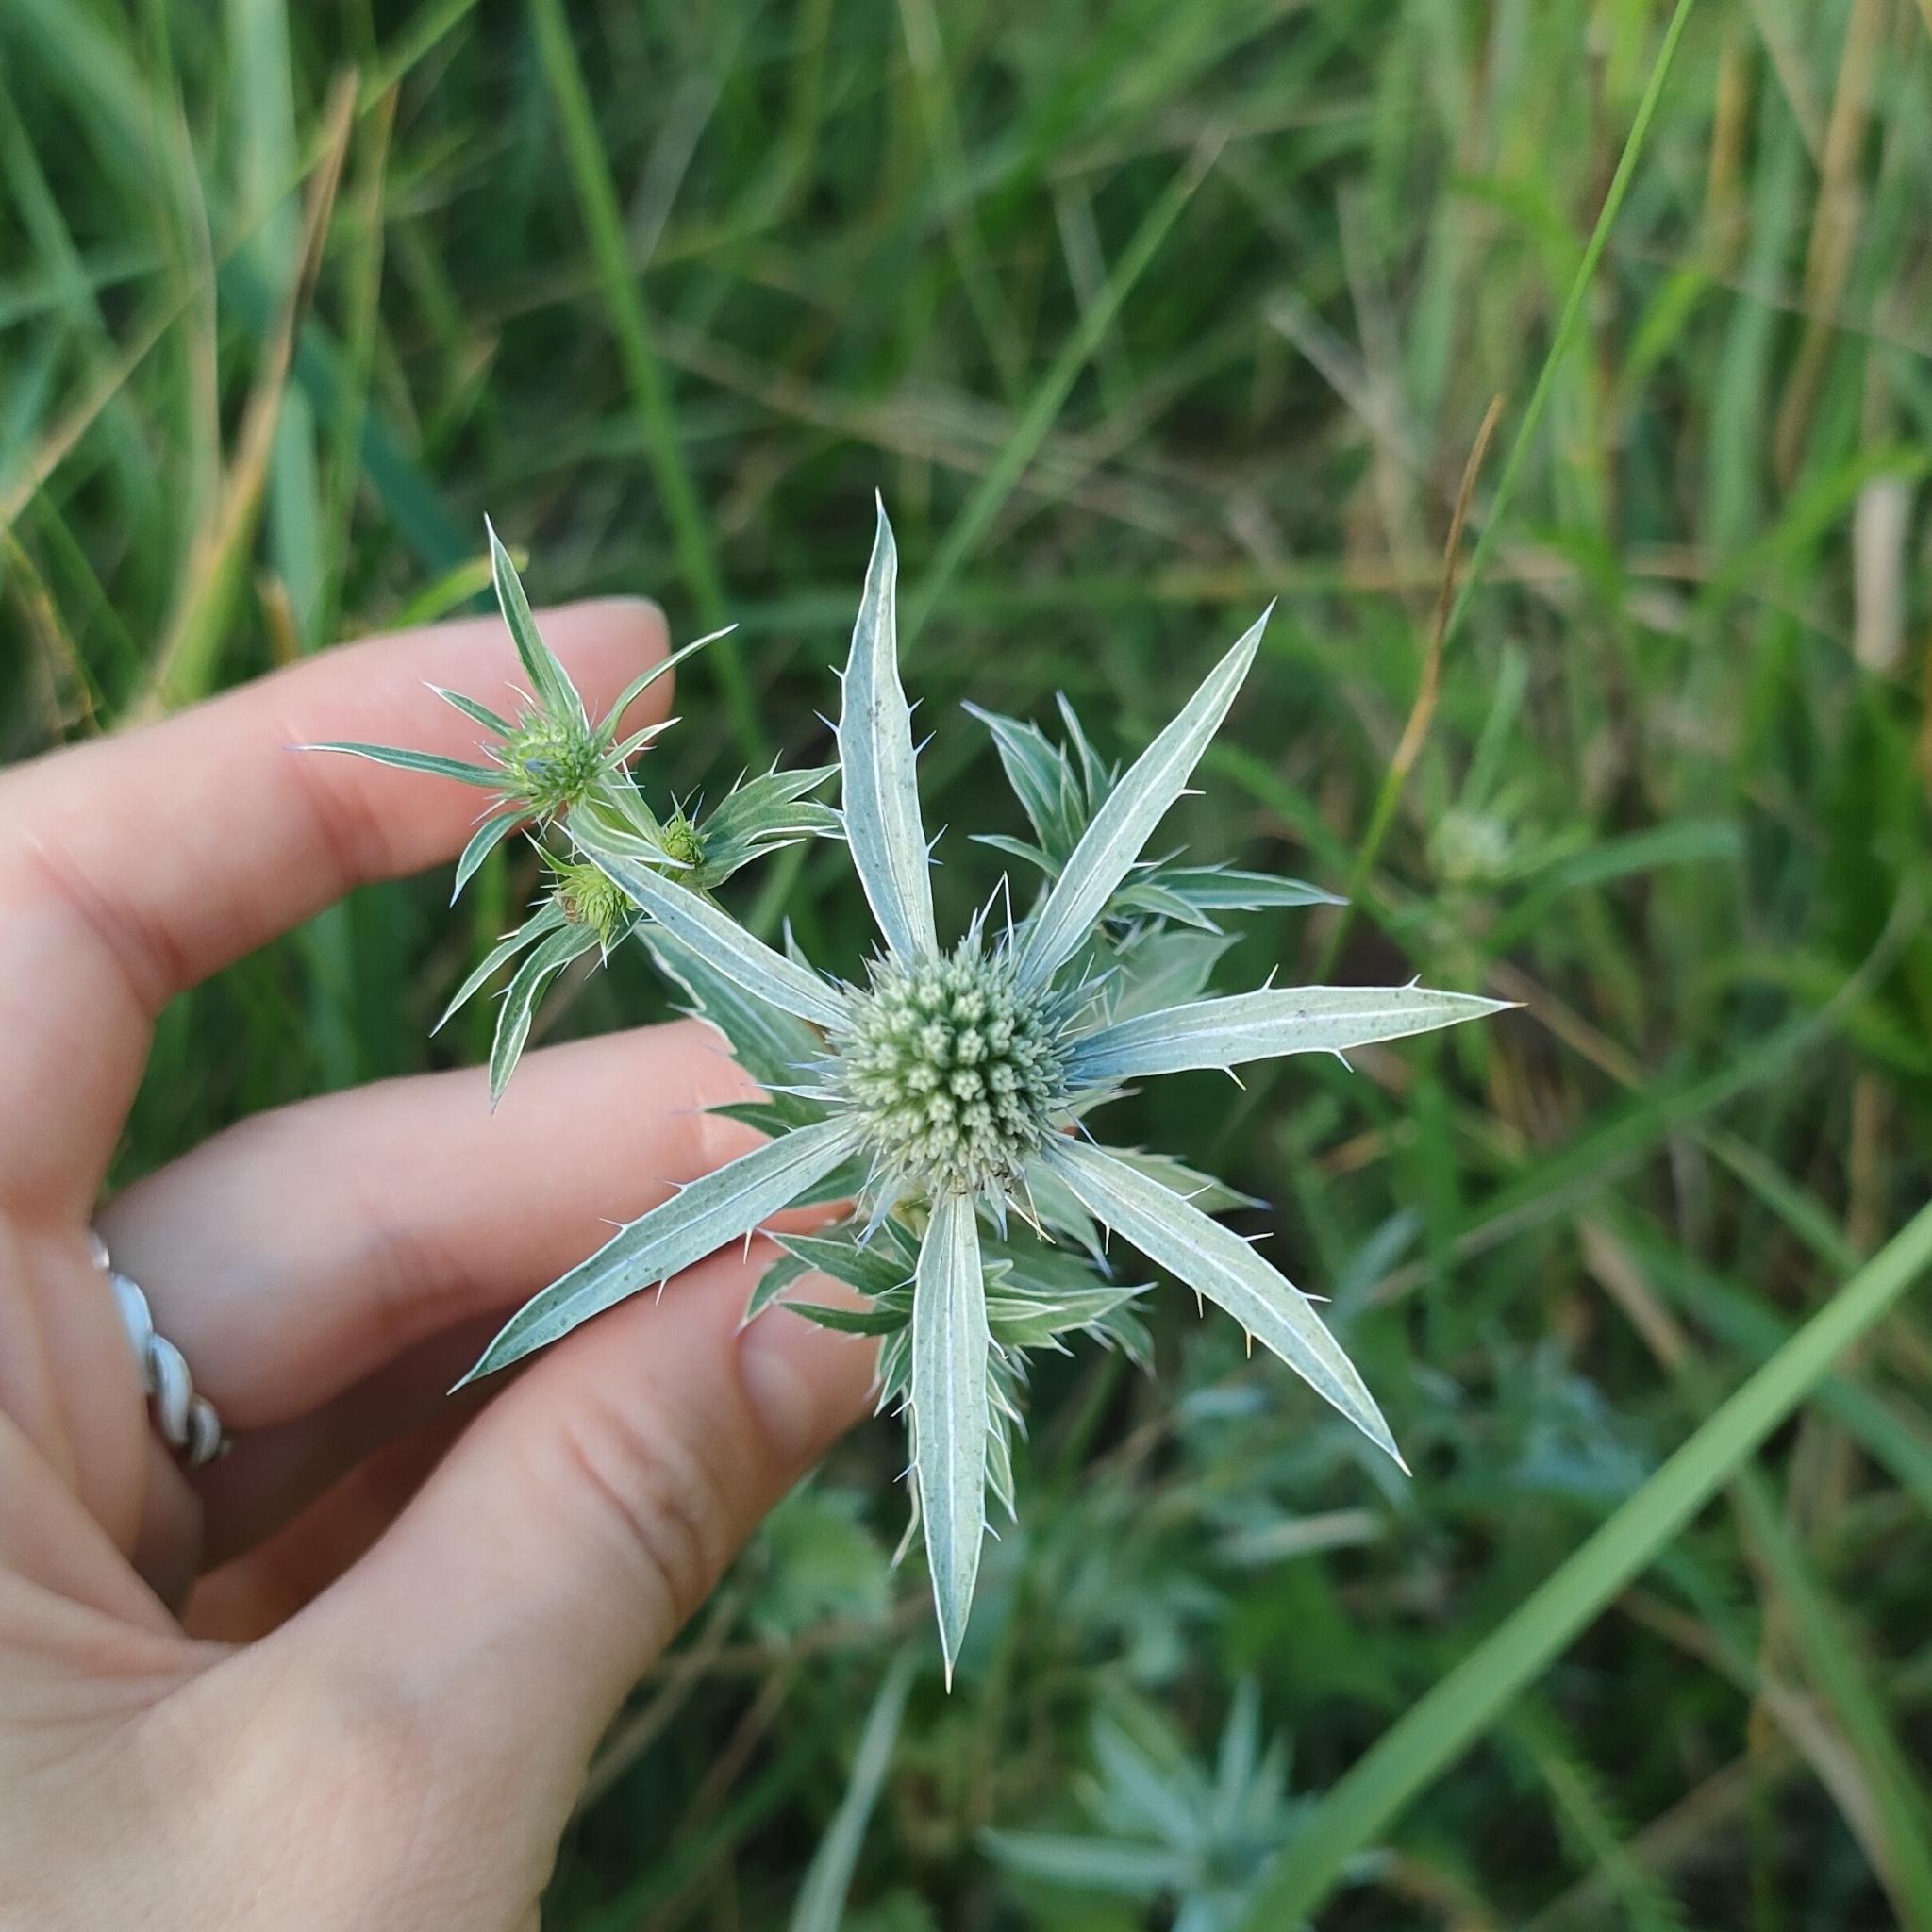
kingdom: Plantae
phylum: Tracheophyta
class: Magnoliopsida
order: Apiales
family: Apiaceae
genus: Eryngium
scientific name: Eryngium planum
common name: Blue eryngo
